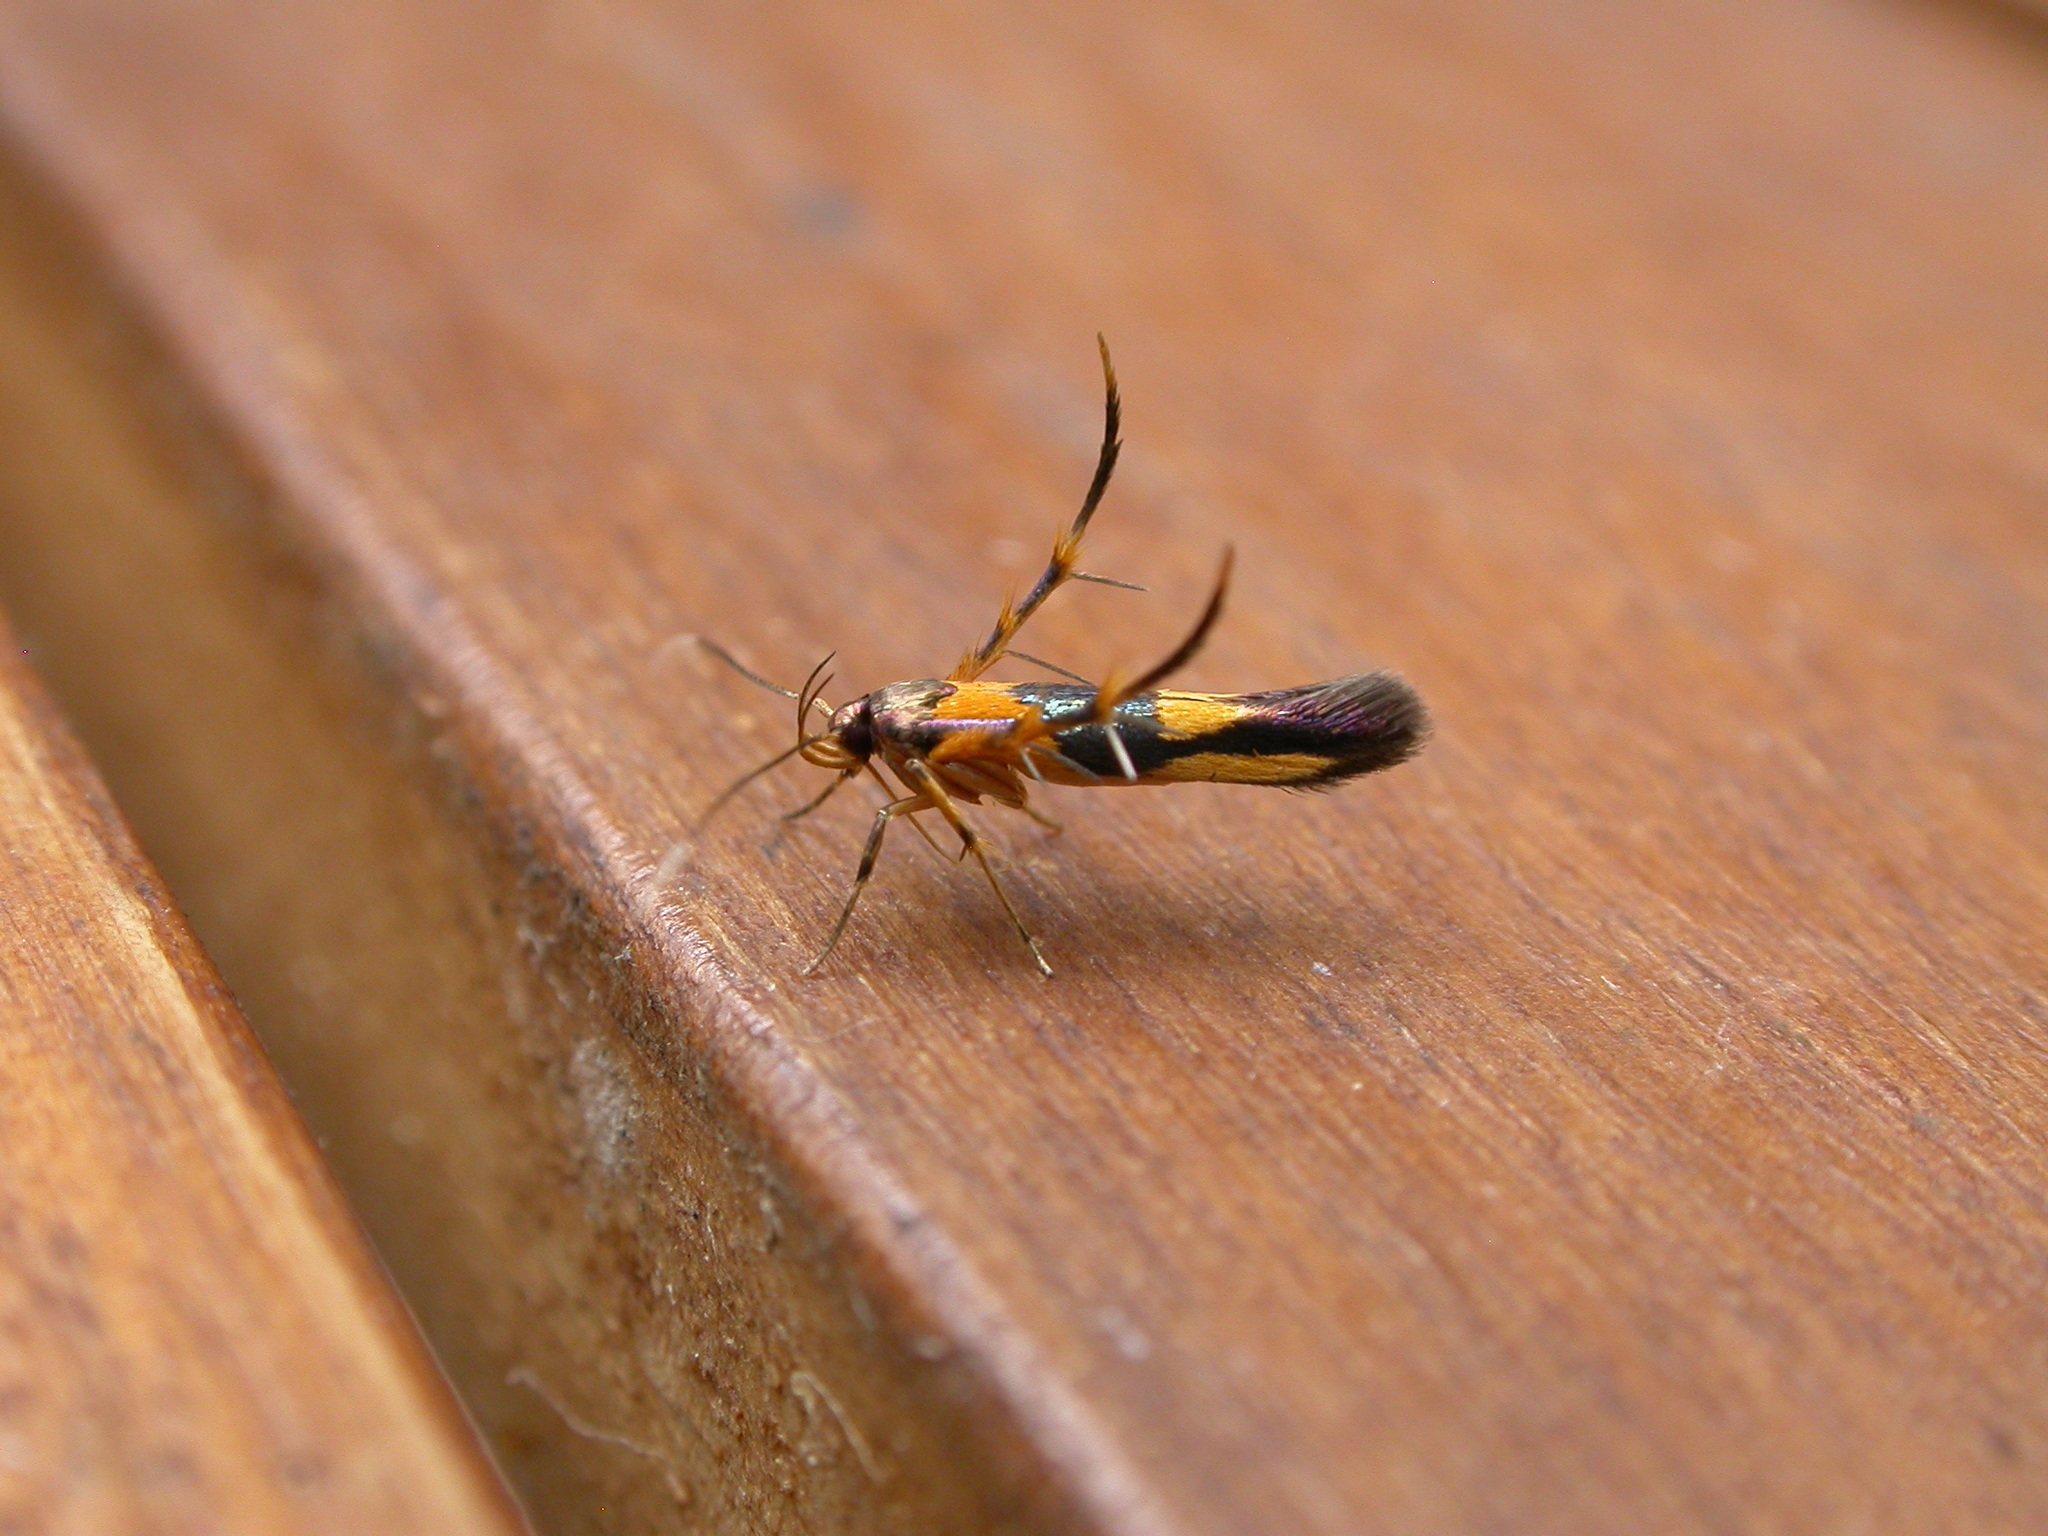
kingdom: Animalia
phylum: Arthropoda
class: Insecta
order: Lepidoptera
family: Cosmopterigidae
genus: Xestocasis
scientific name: Xestocasis balanochrysa
